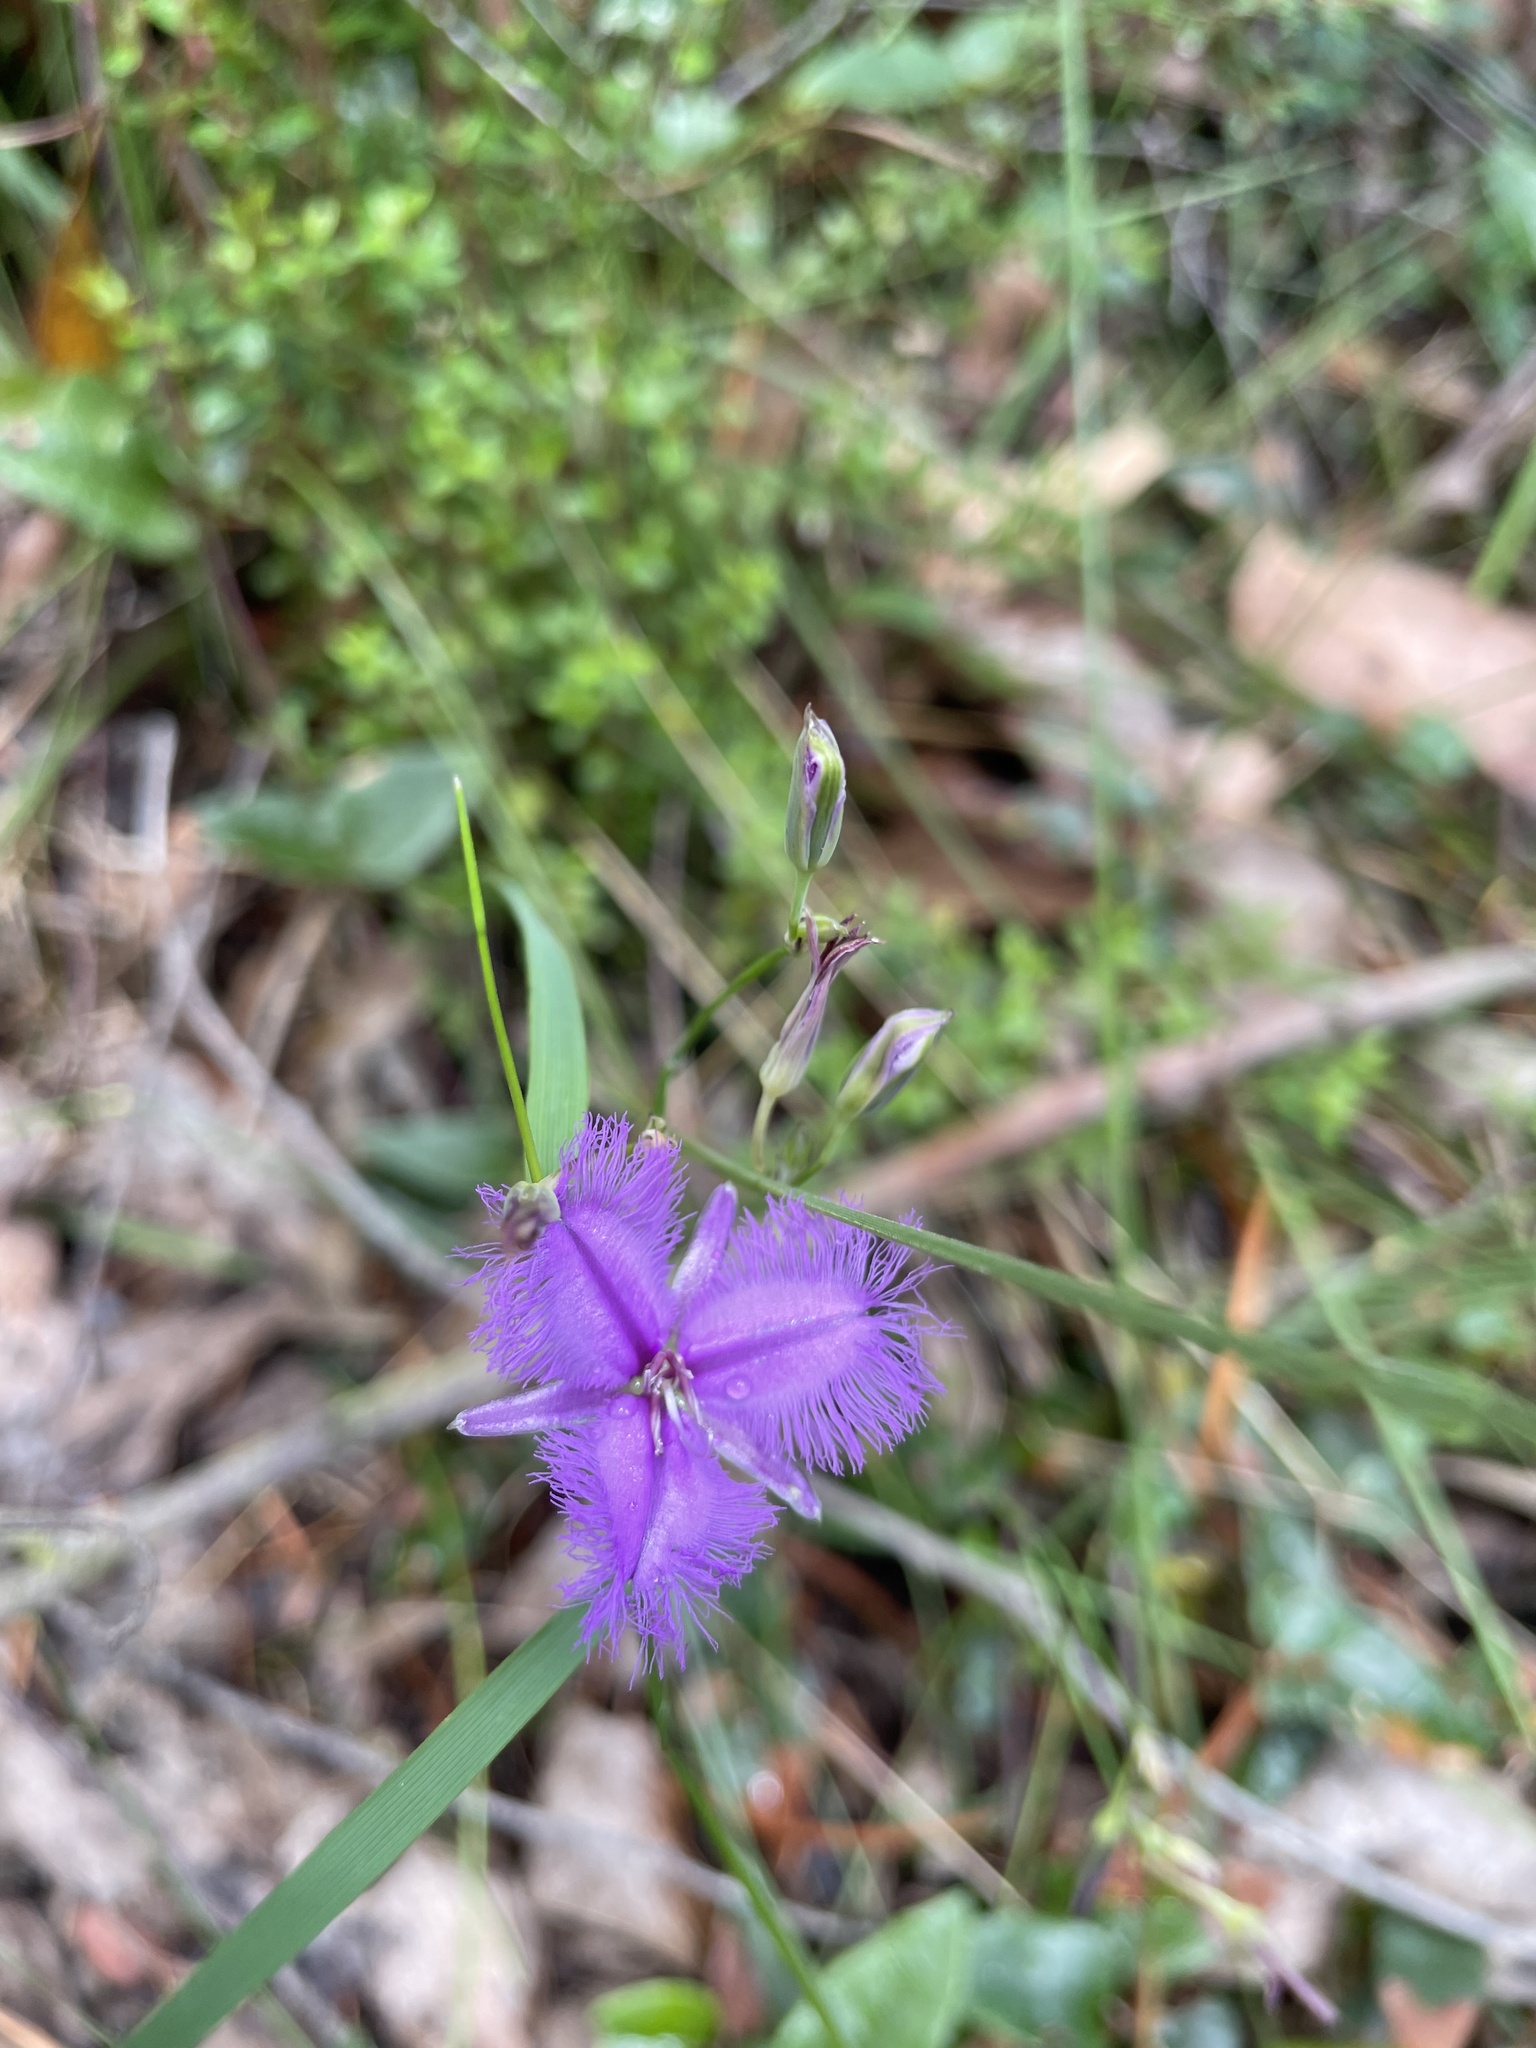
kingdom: Plantae
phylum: Tracheophyta
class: Liliopsida
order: Asparagales
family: Asparagaceae
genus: Thysanotus
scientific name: Thysanotus tuberosus
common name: Common fringed-lily
